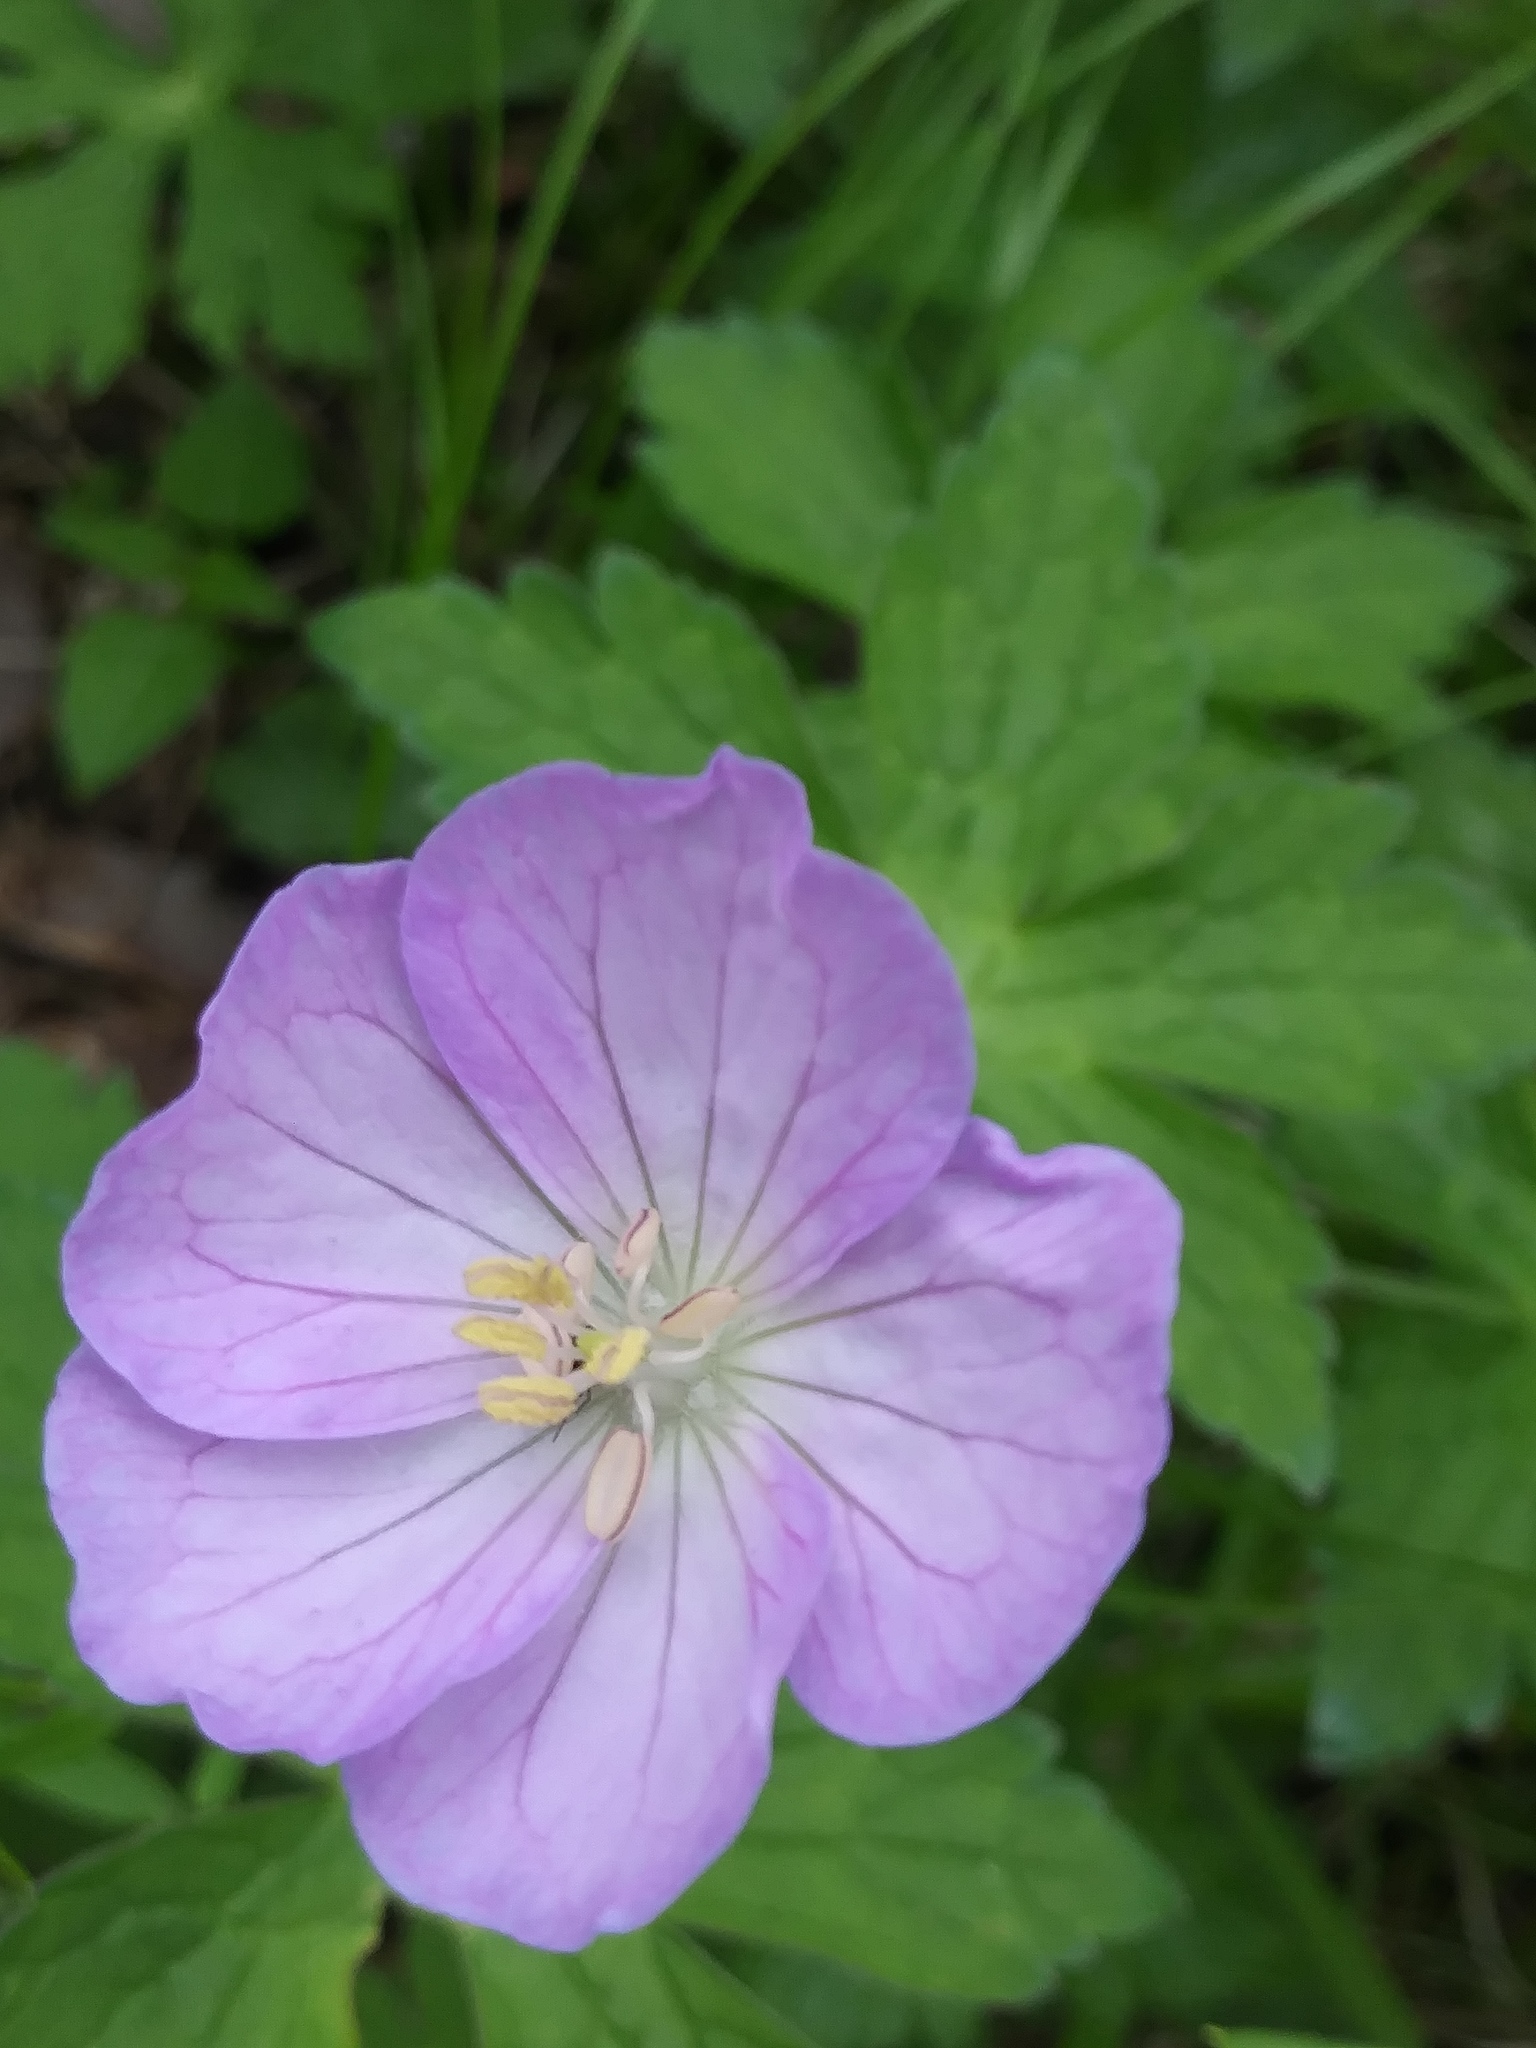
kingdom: Plantae
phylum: Tracheophyta
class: Magnoliopsida
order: Geraniales
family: Geraniaceae
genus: Geranium
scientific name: Geranium maculatum
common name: Spotted geranium
